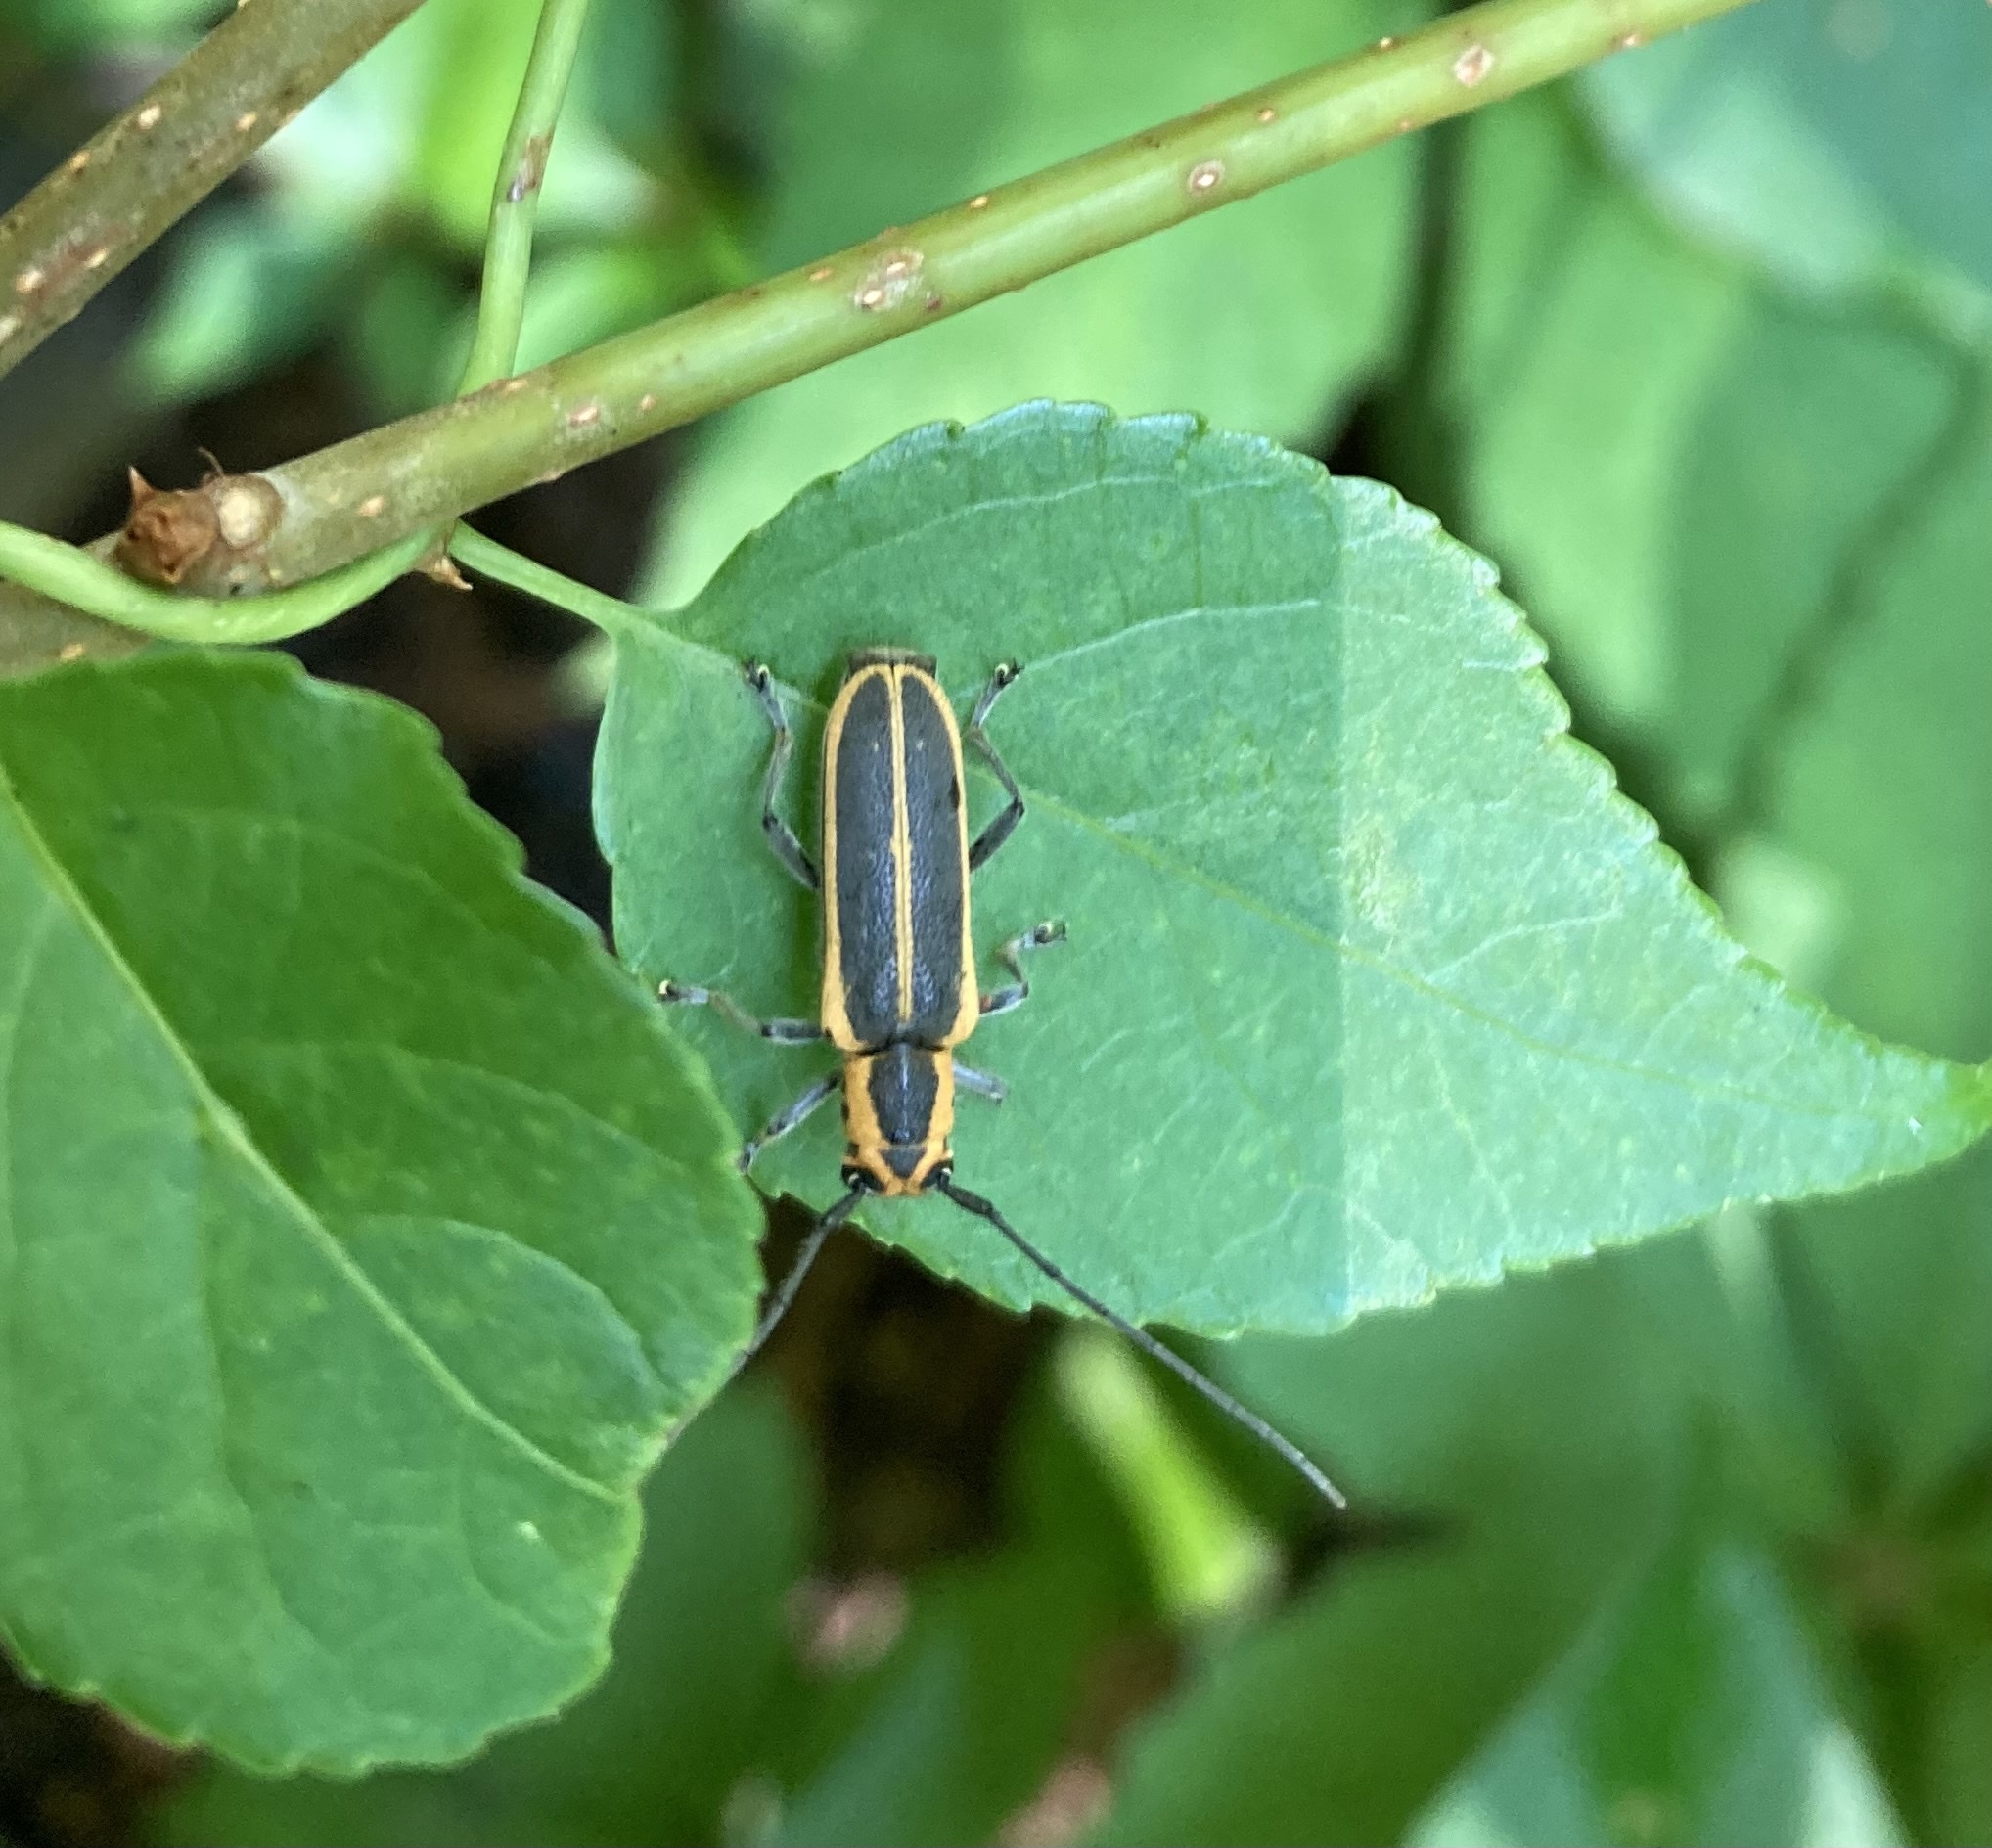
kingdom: Animalia
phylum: Arthropoda
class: Insecta
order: Coleoptera
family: Cerambycidae
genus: Saperda
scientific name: Saperda lateralis
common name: Red-edged saperda
